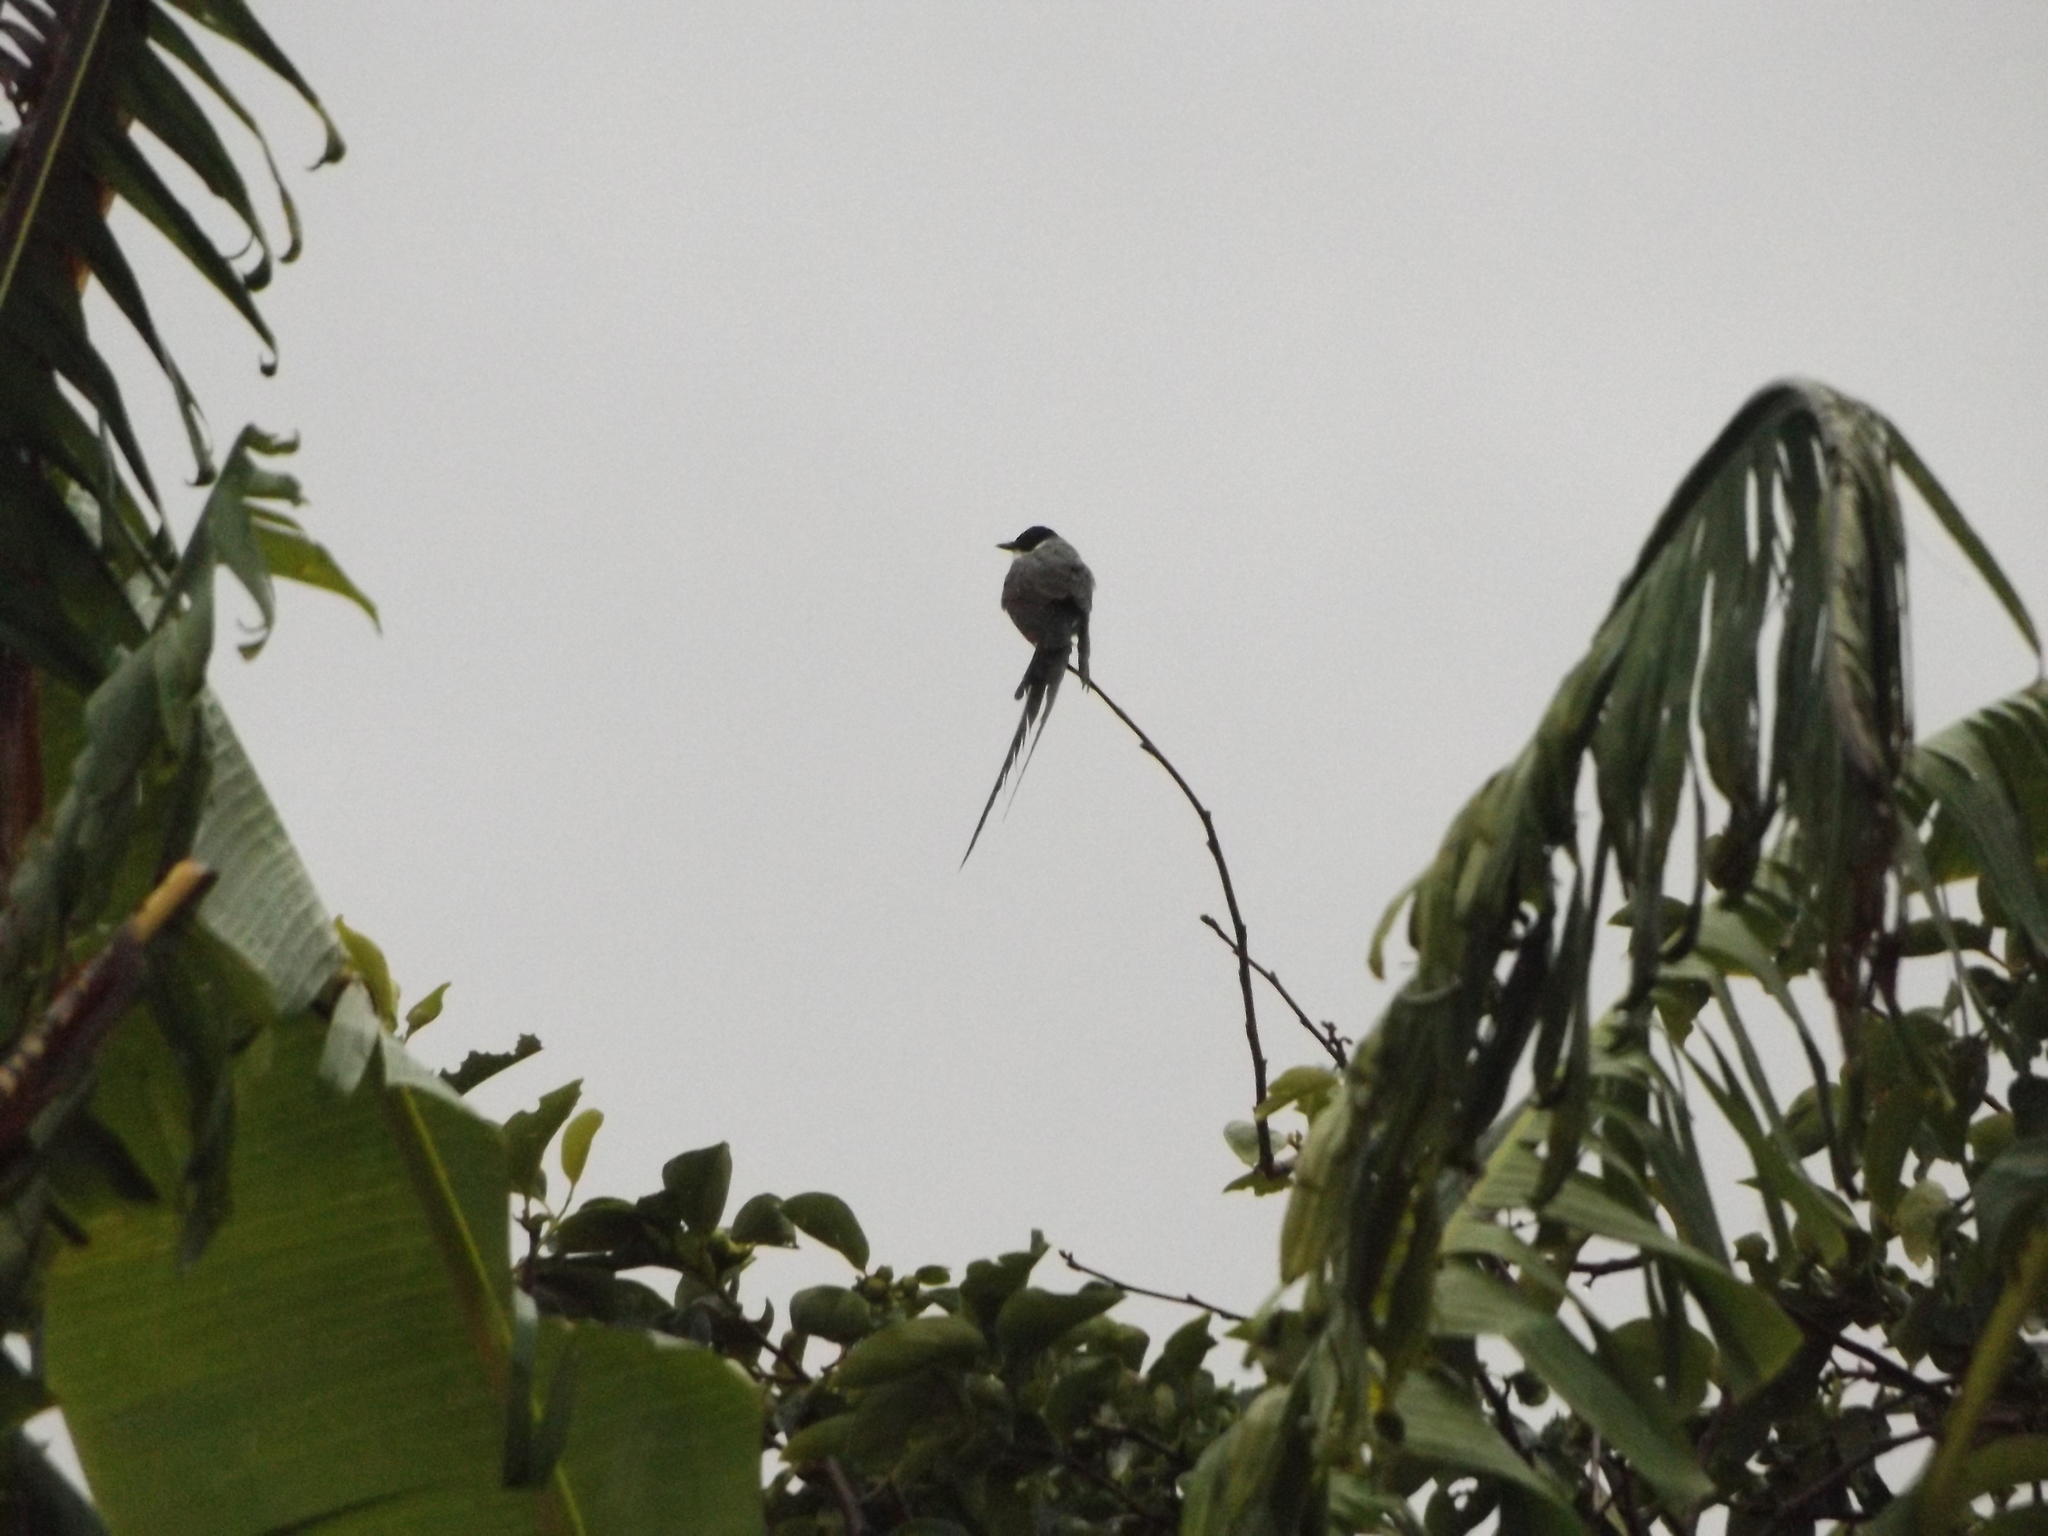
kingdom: Animalia
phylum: Chordata
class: Aves
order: Passeriformes
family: Tyrannidae
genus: Tyrannus
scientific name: Tyrannus savana
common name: Fork-tailed flycatcher
